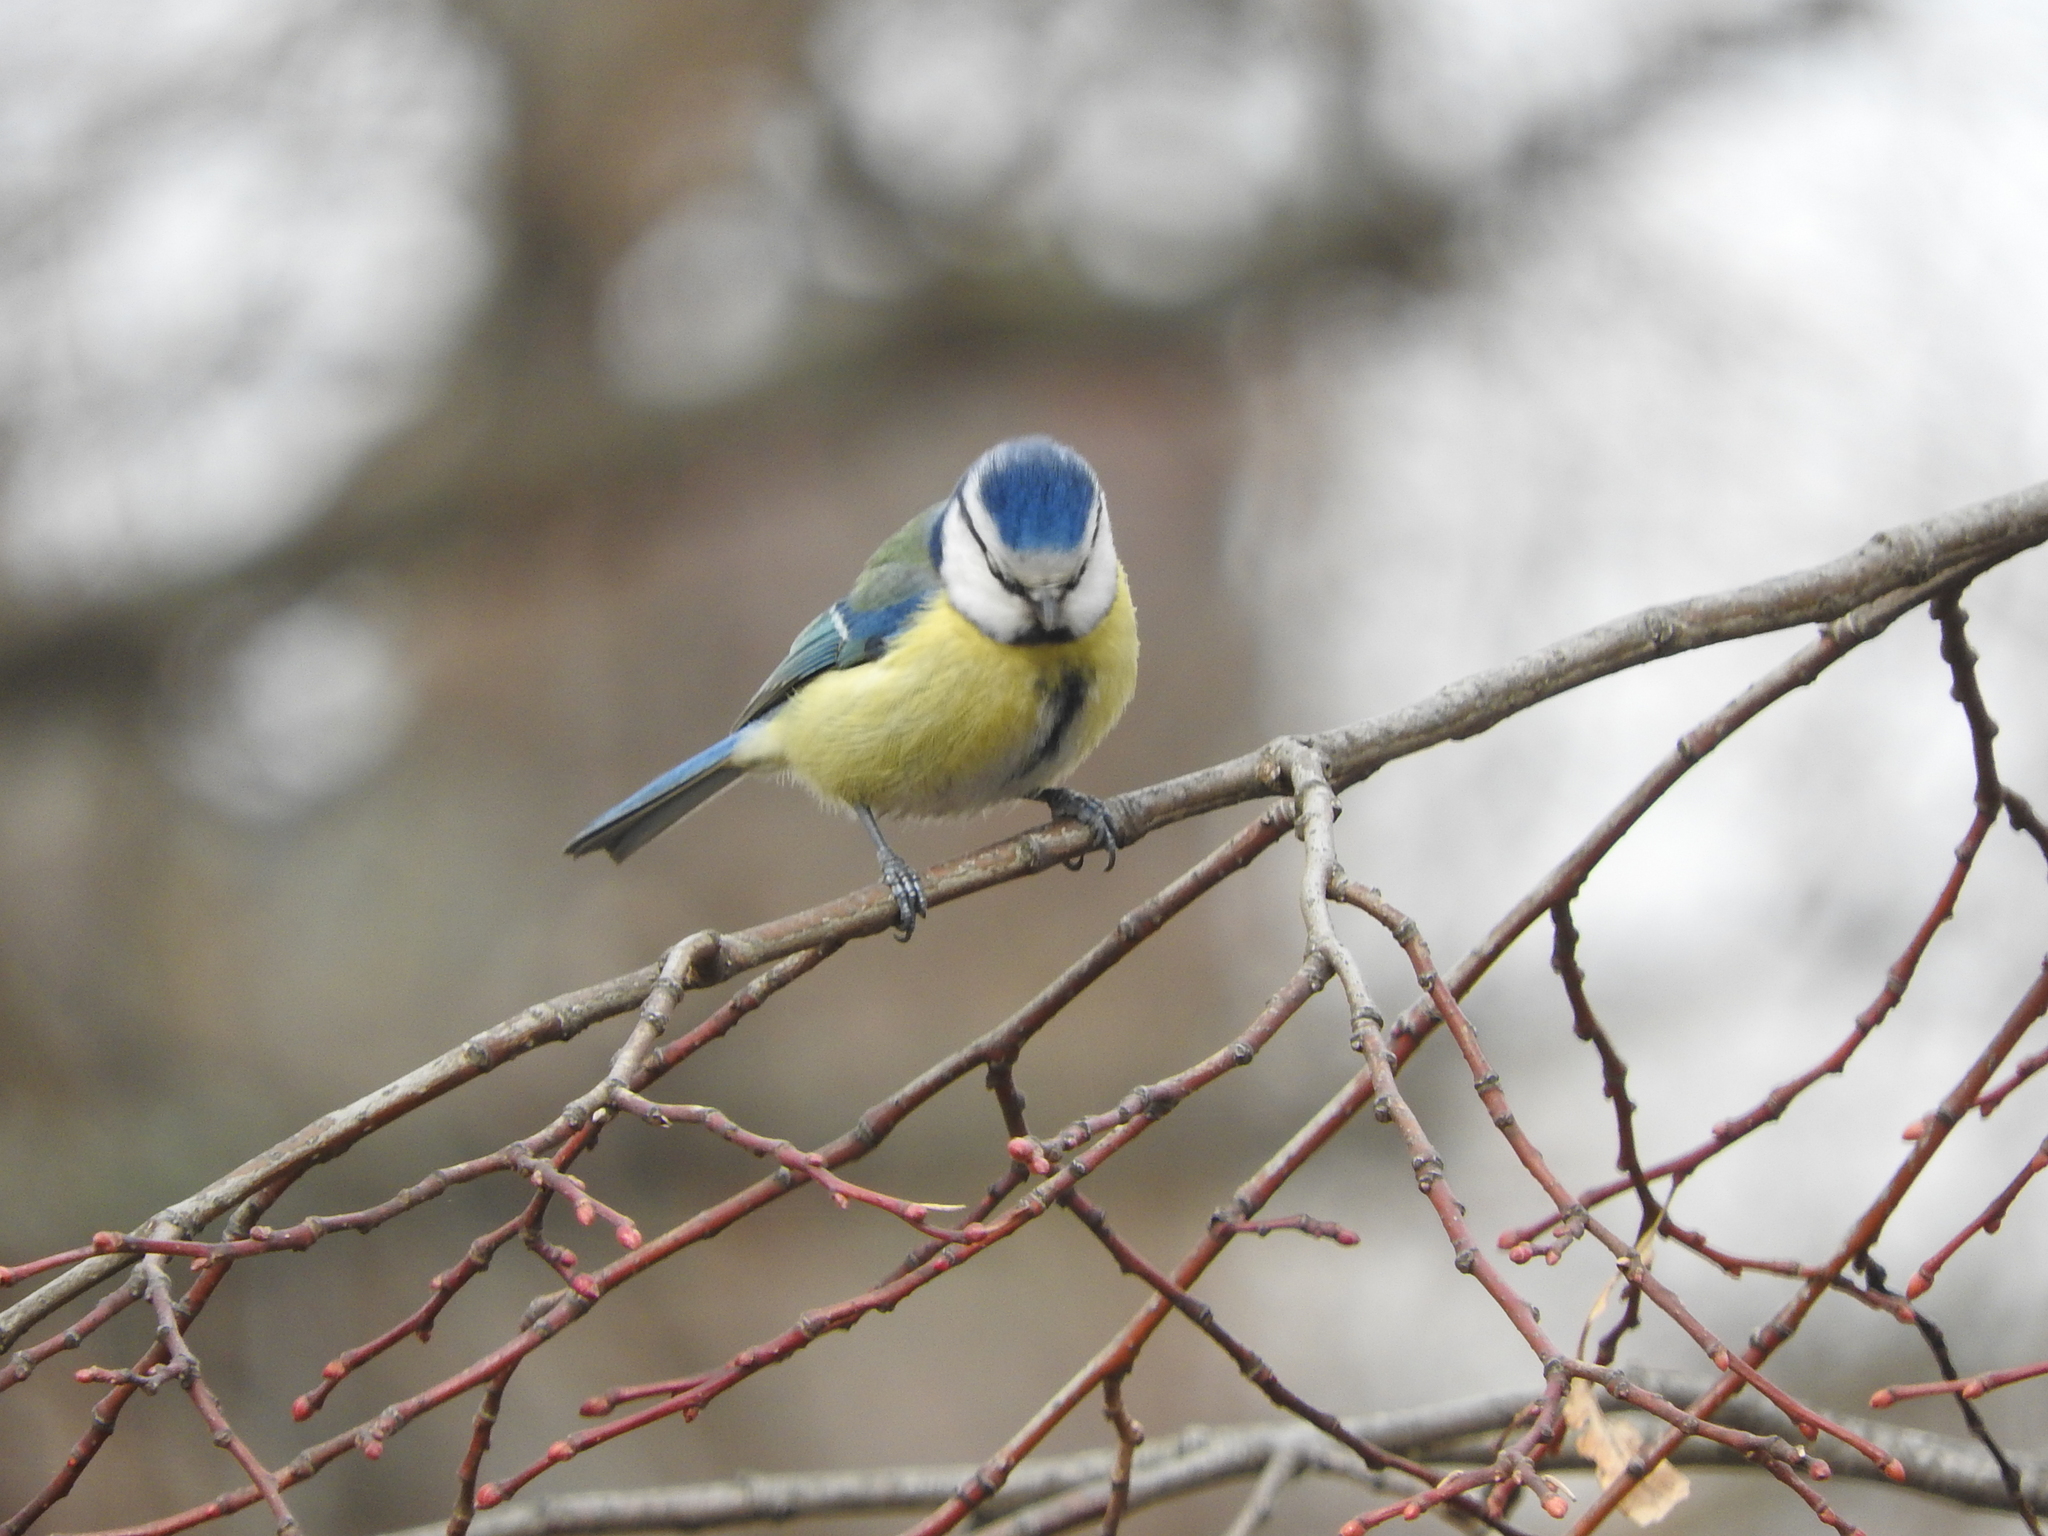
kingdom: Animalia
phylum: Chordata
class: Aves
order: Passeriformes
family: Paridae
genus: Cyanistes
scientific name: Cyanistes caeruleus
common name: Eurasian blue tit
